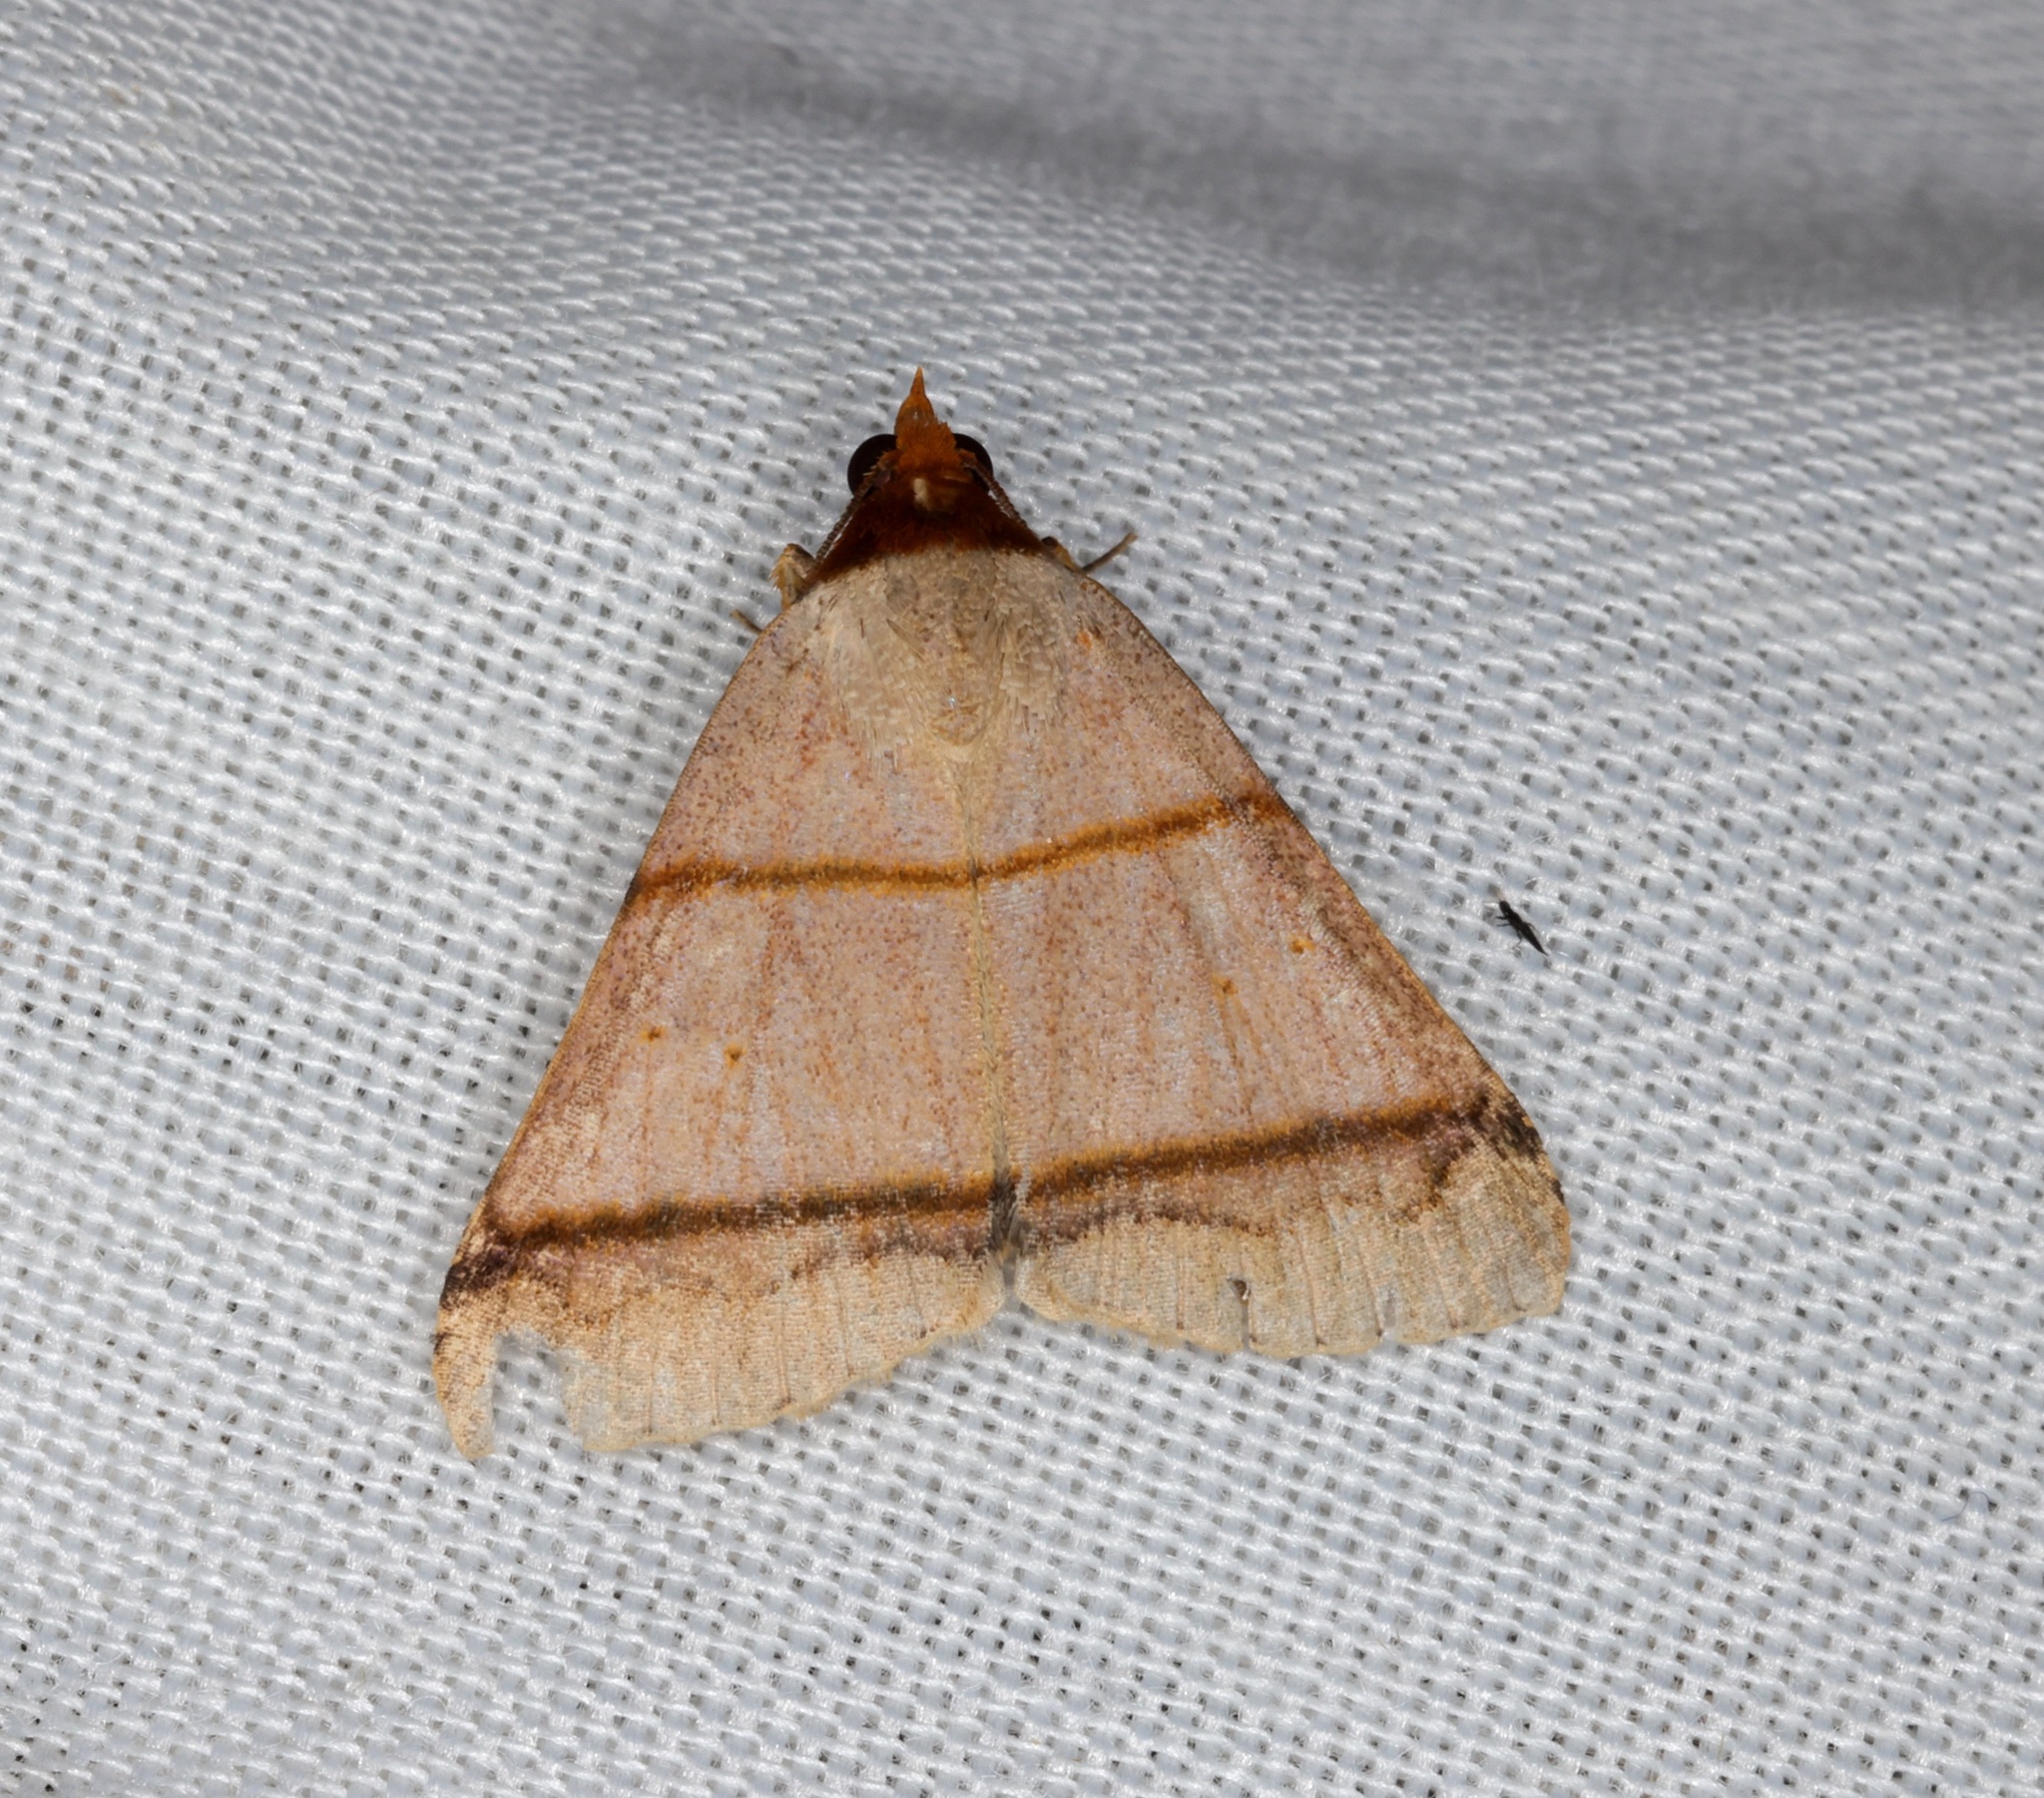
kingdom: Animalia
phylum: Arthropoda
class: Insecta
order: Lepidoptera
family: Erebidae
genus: Plecoptera
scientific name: Plecoptera recta
